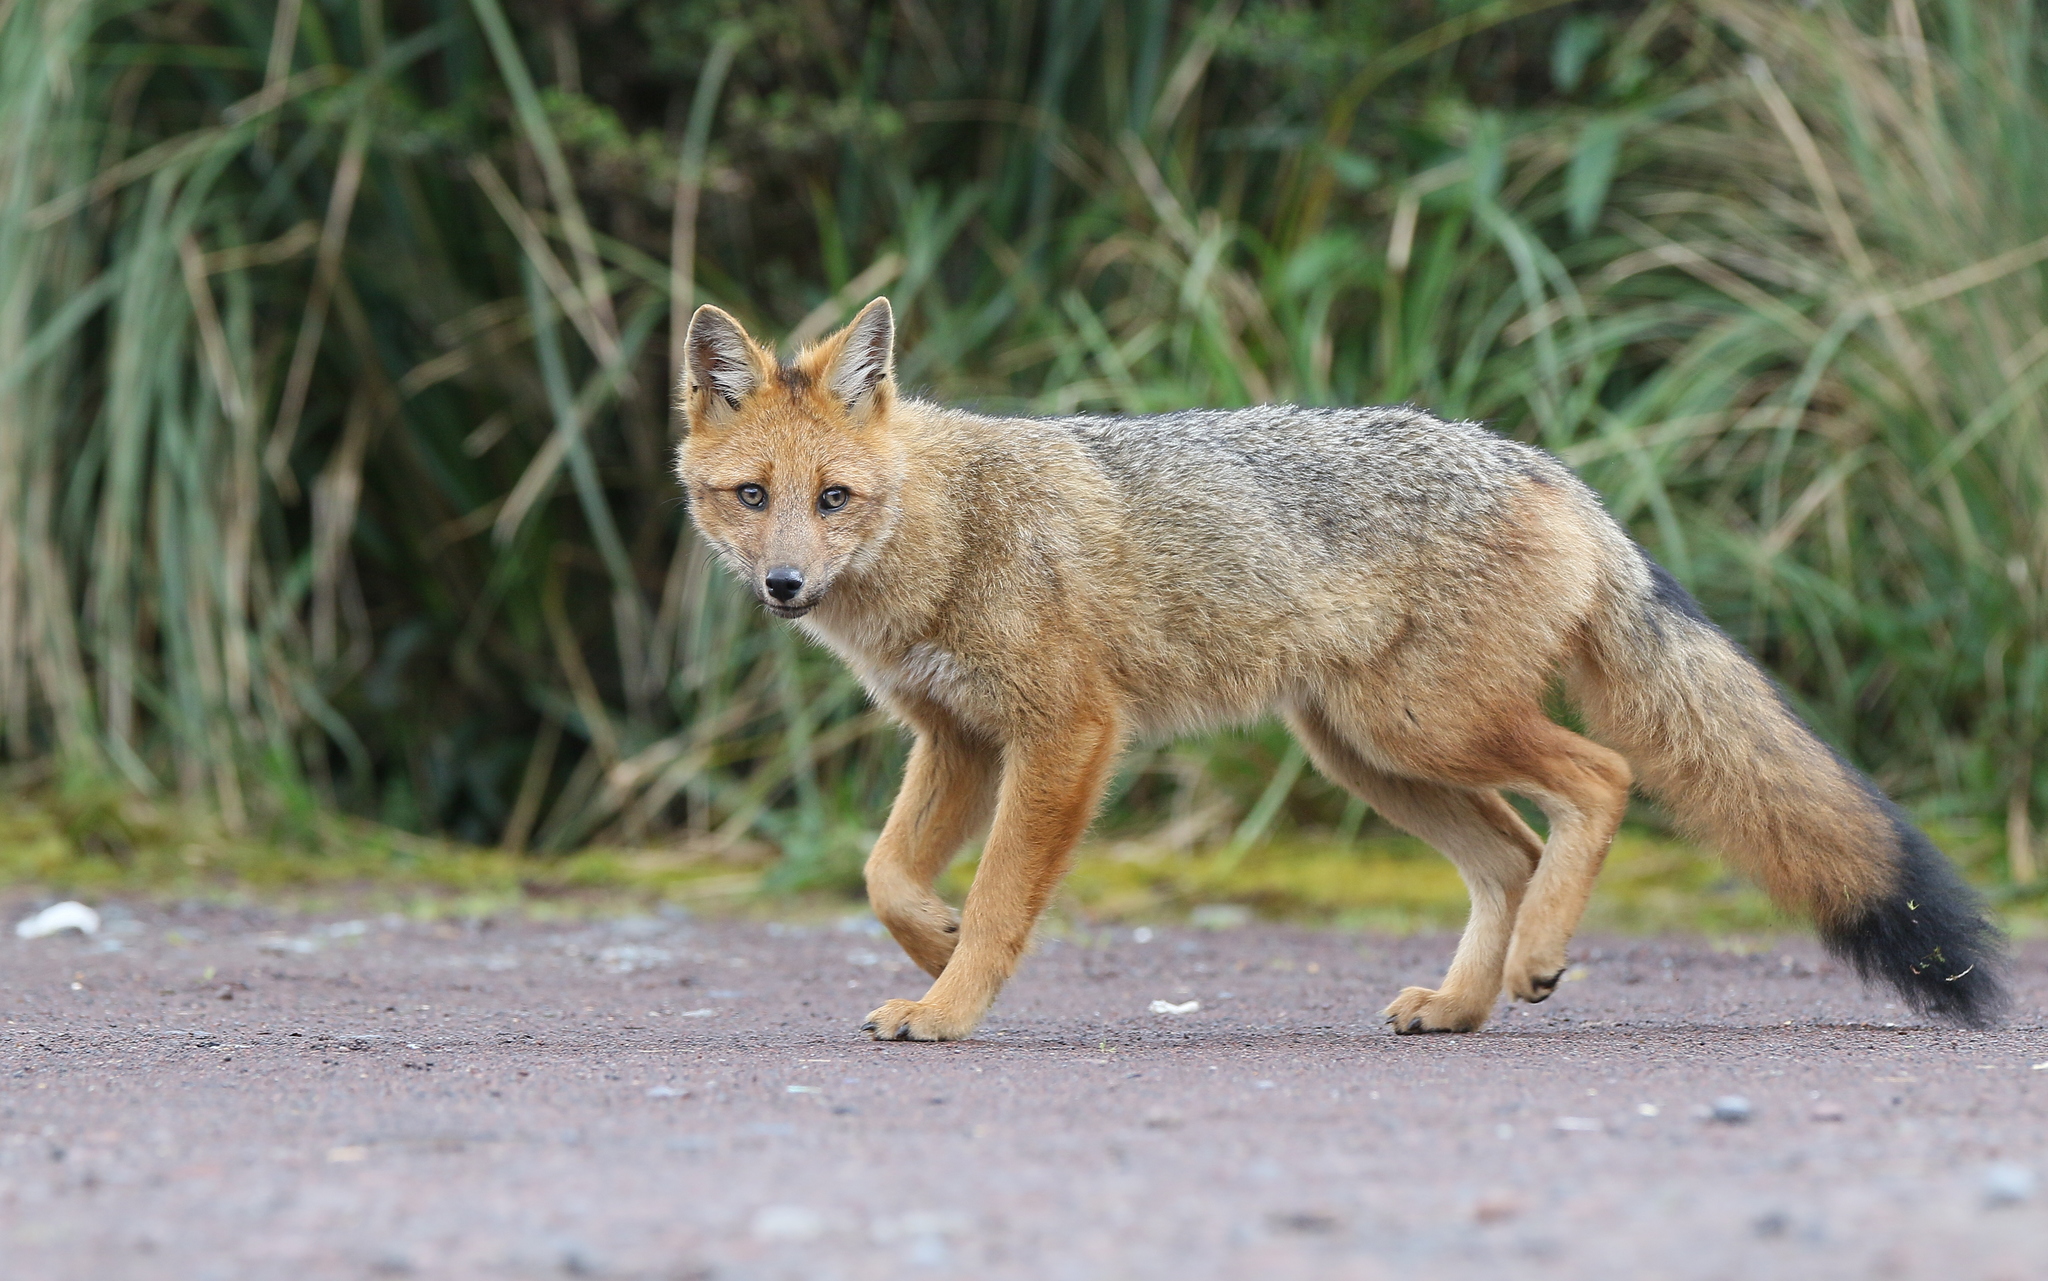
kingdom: Animalia
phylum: Chordata
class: Mammalia
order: Carnivora
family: Canidae
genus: Lycalopex
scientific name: Lycalopex culpaeus
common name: Culpeo
